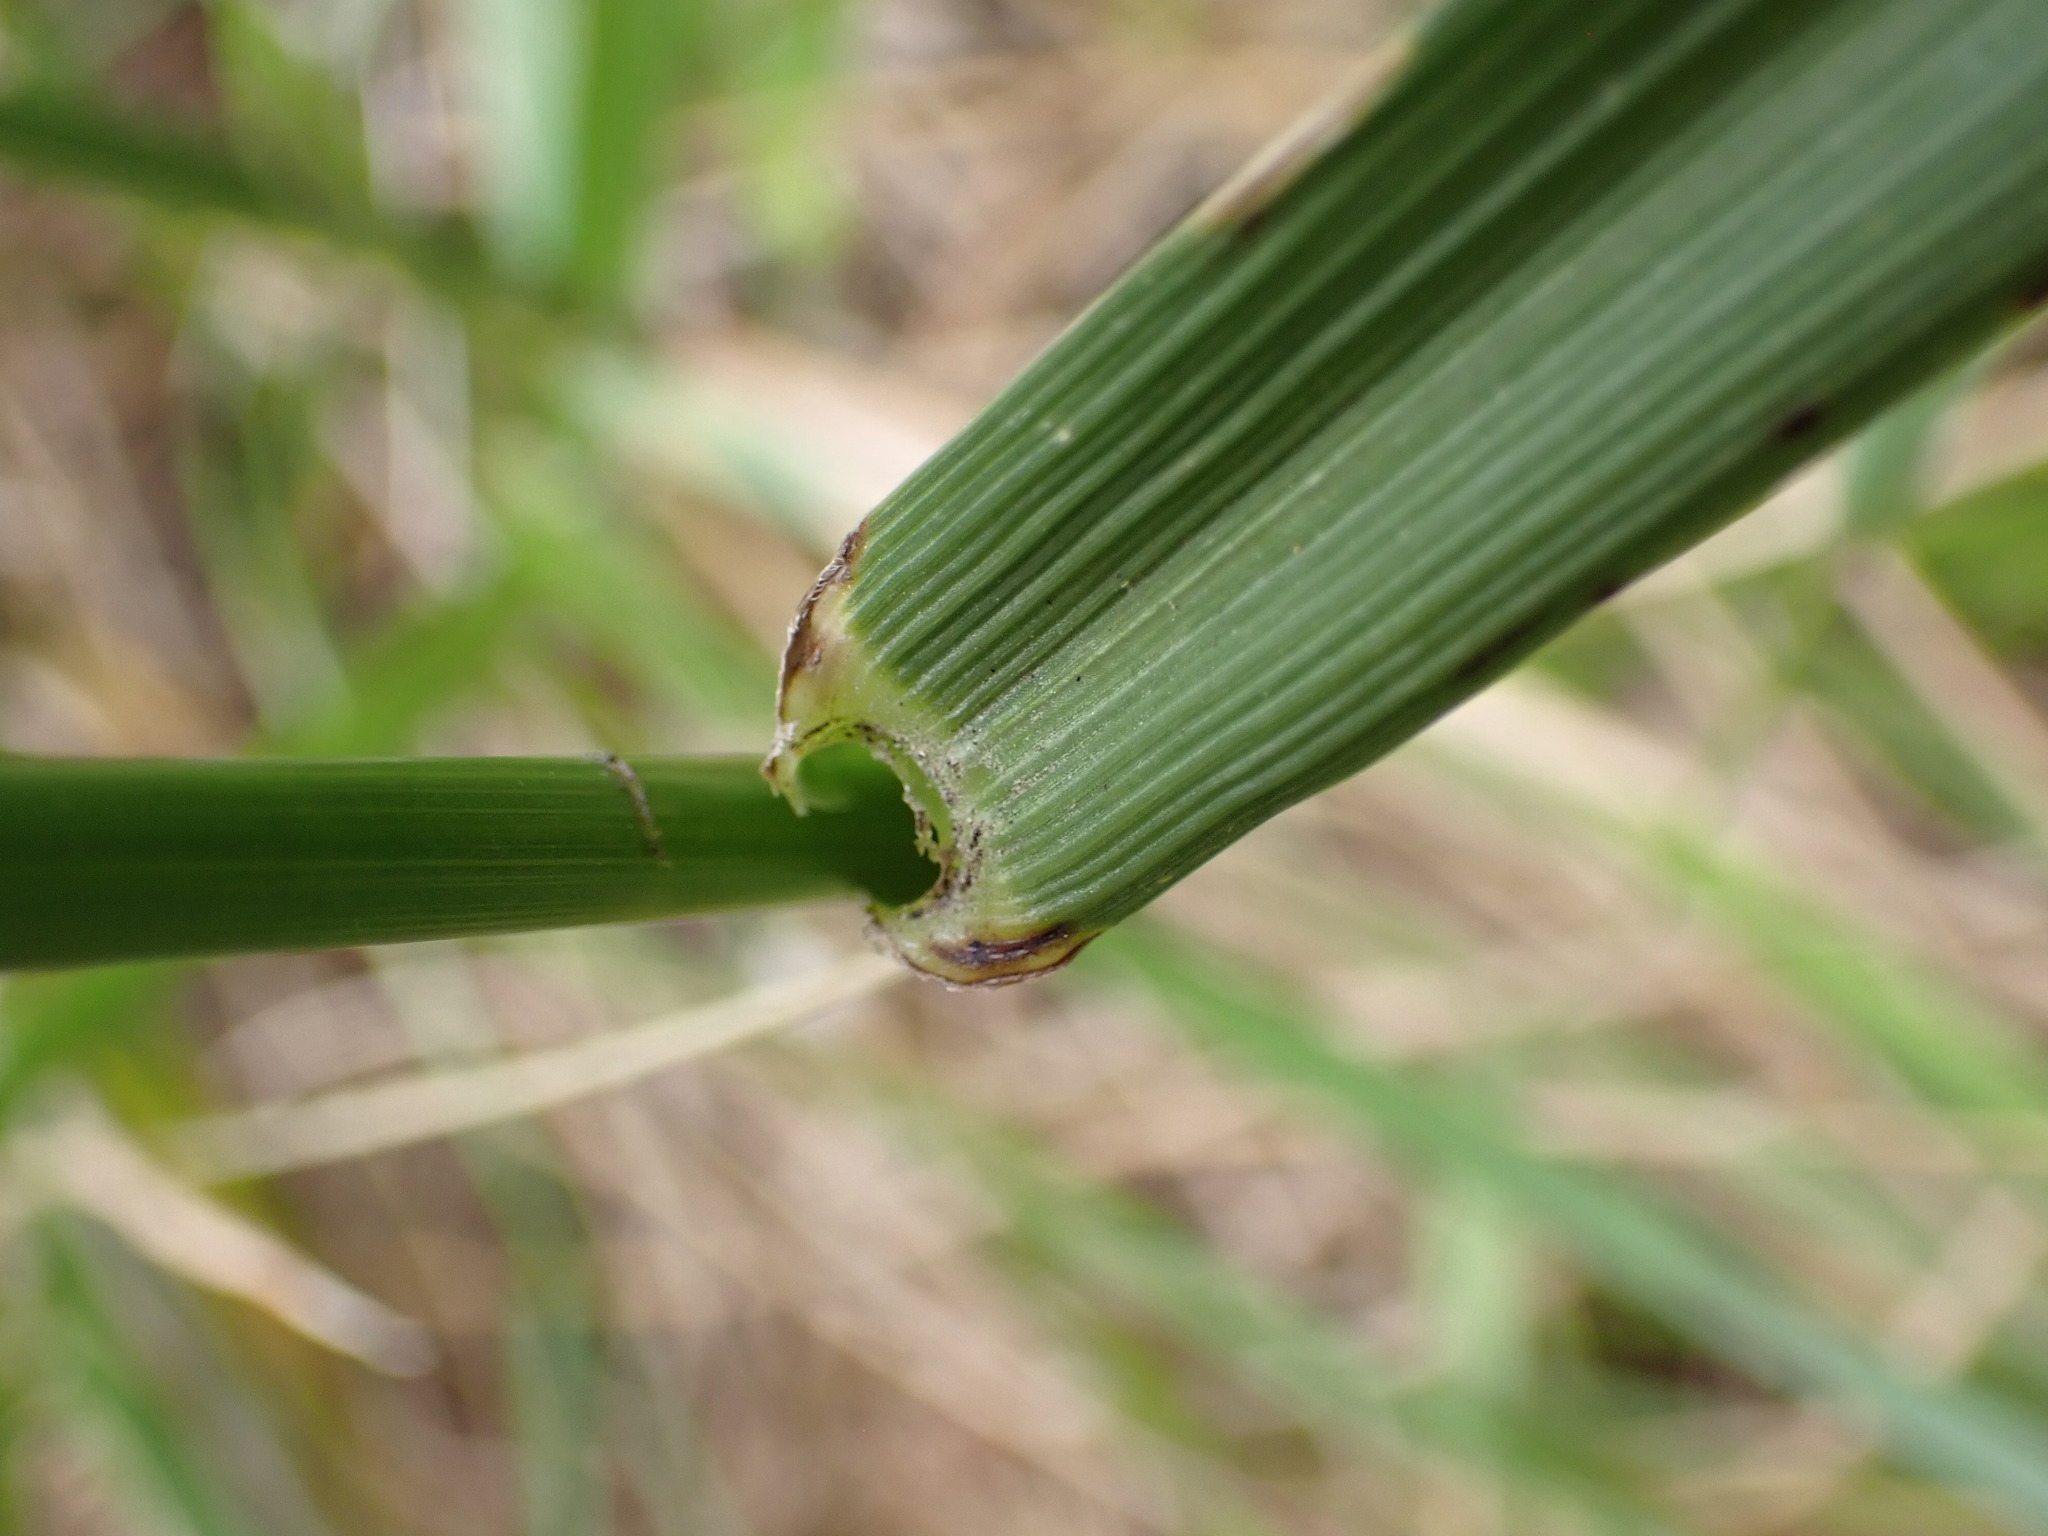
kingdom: Plantae
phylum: Tracheophyta
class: Liliopsida
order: Poales
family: Poaceae
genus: Lolium
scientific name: Lolium arundinaceum
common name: Reed fescue
